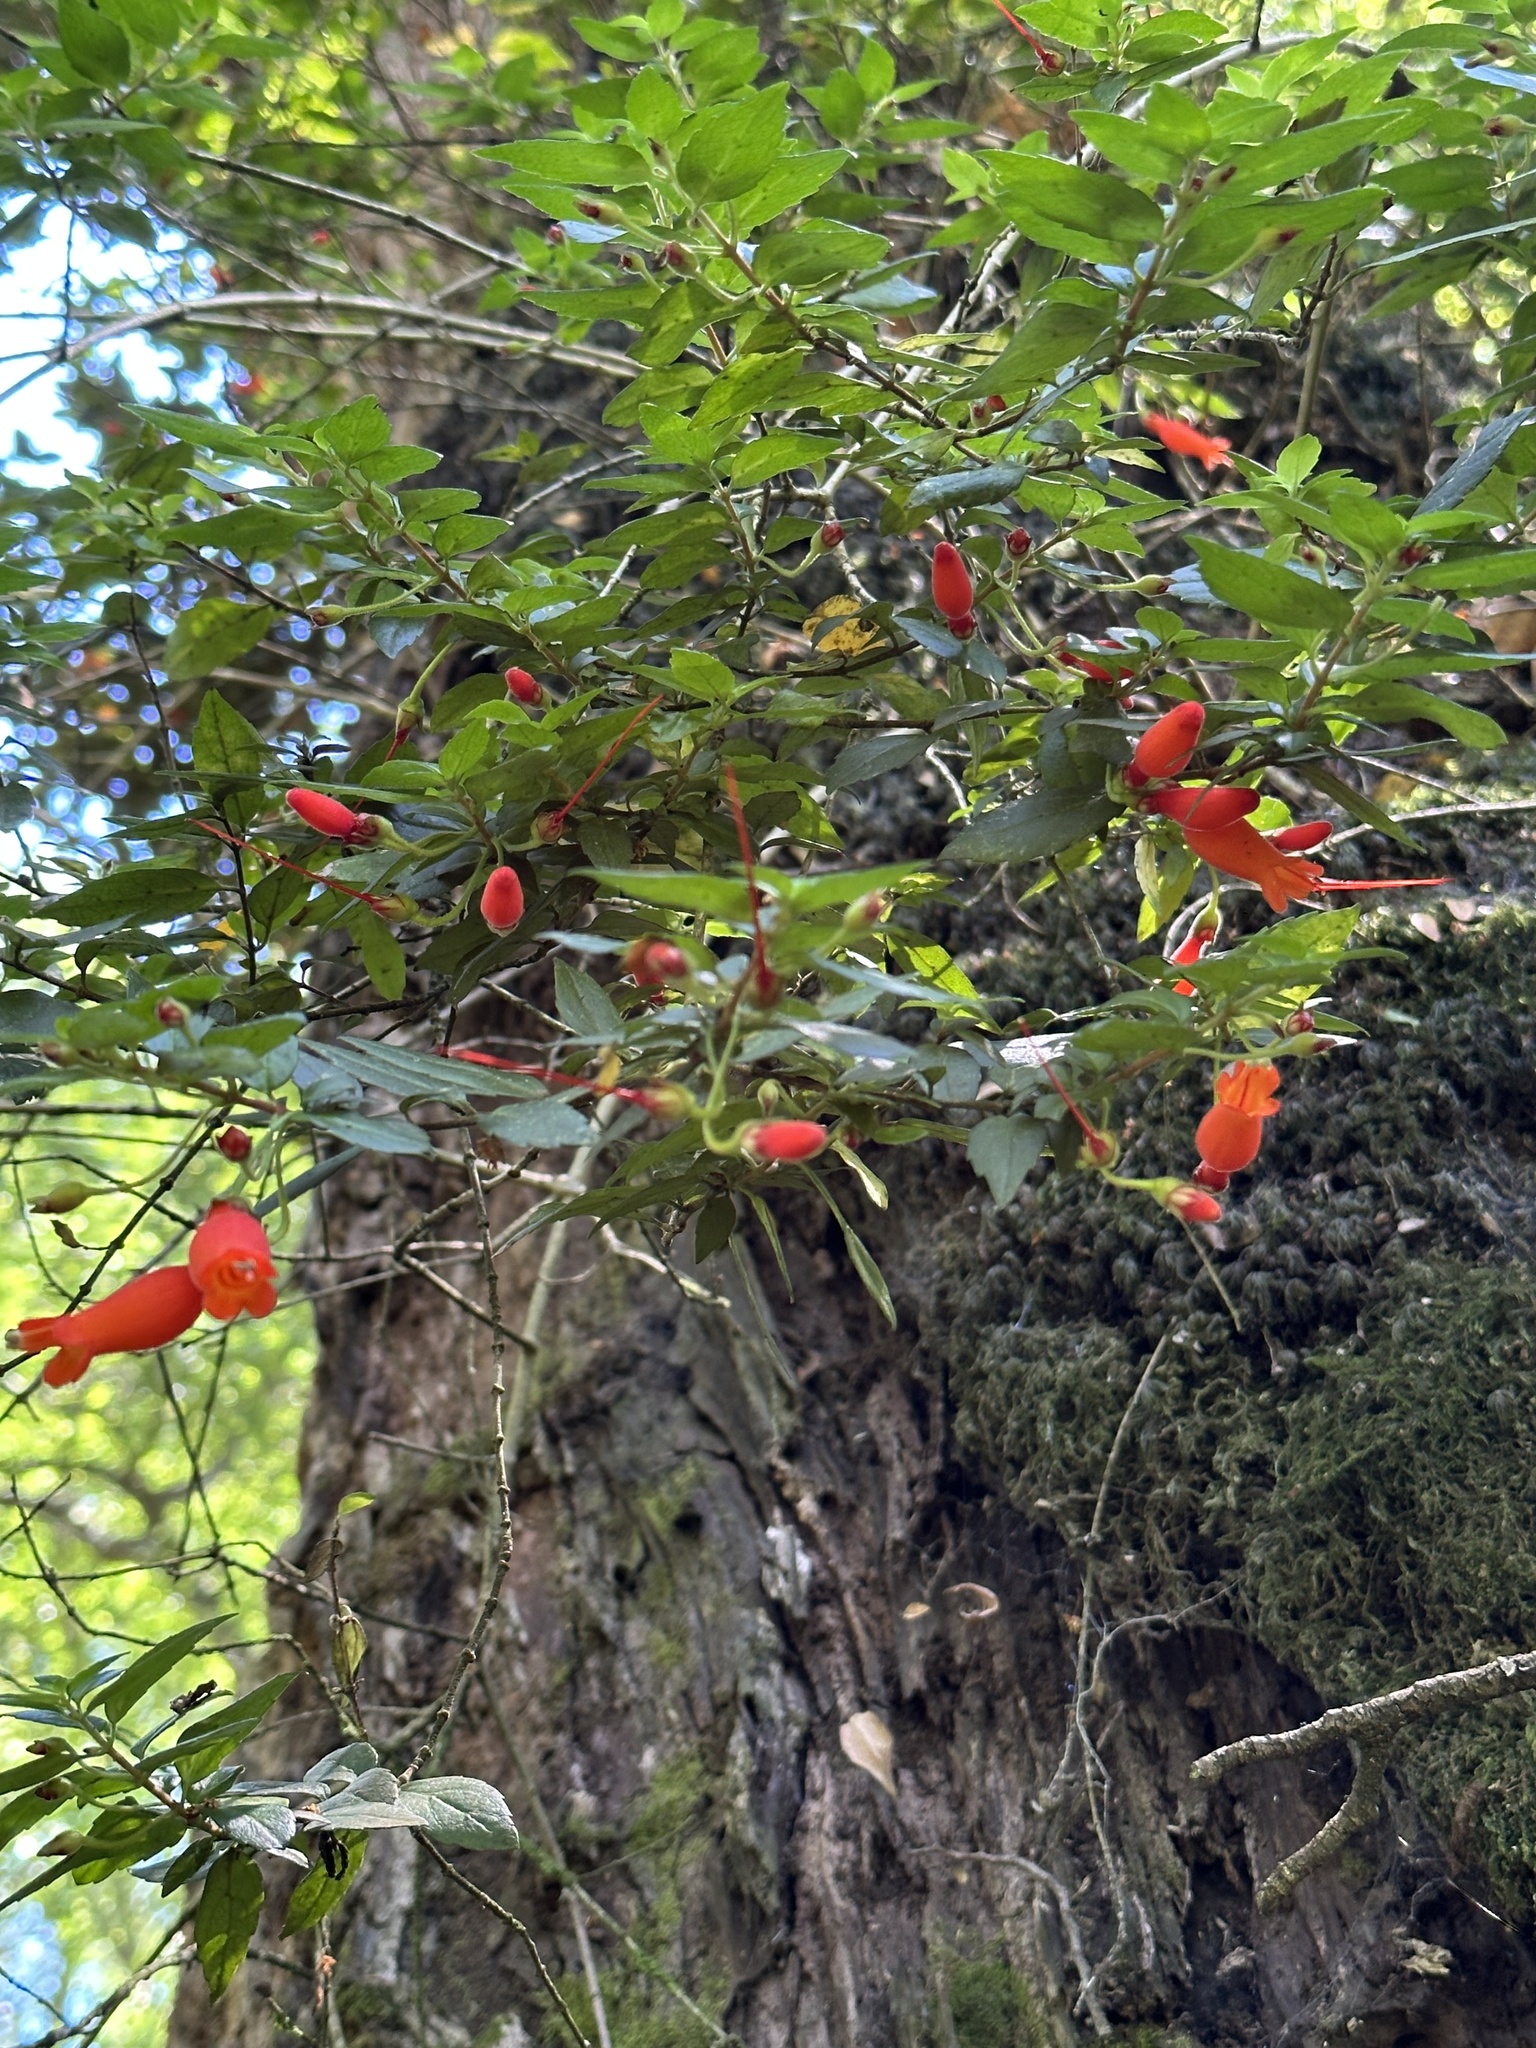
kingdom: Plantae
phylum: Tracheophyta
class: Magnoliopsida
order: Lamiales
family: Gesneriaceae
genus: Mitraria
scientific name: Mitraria coccinea
